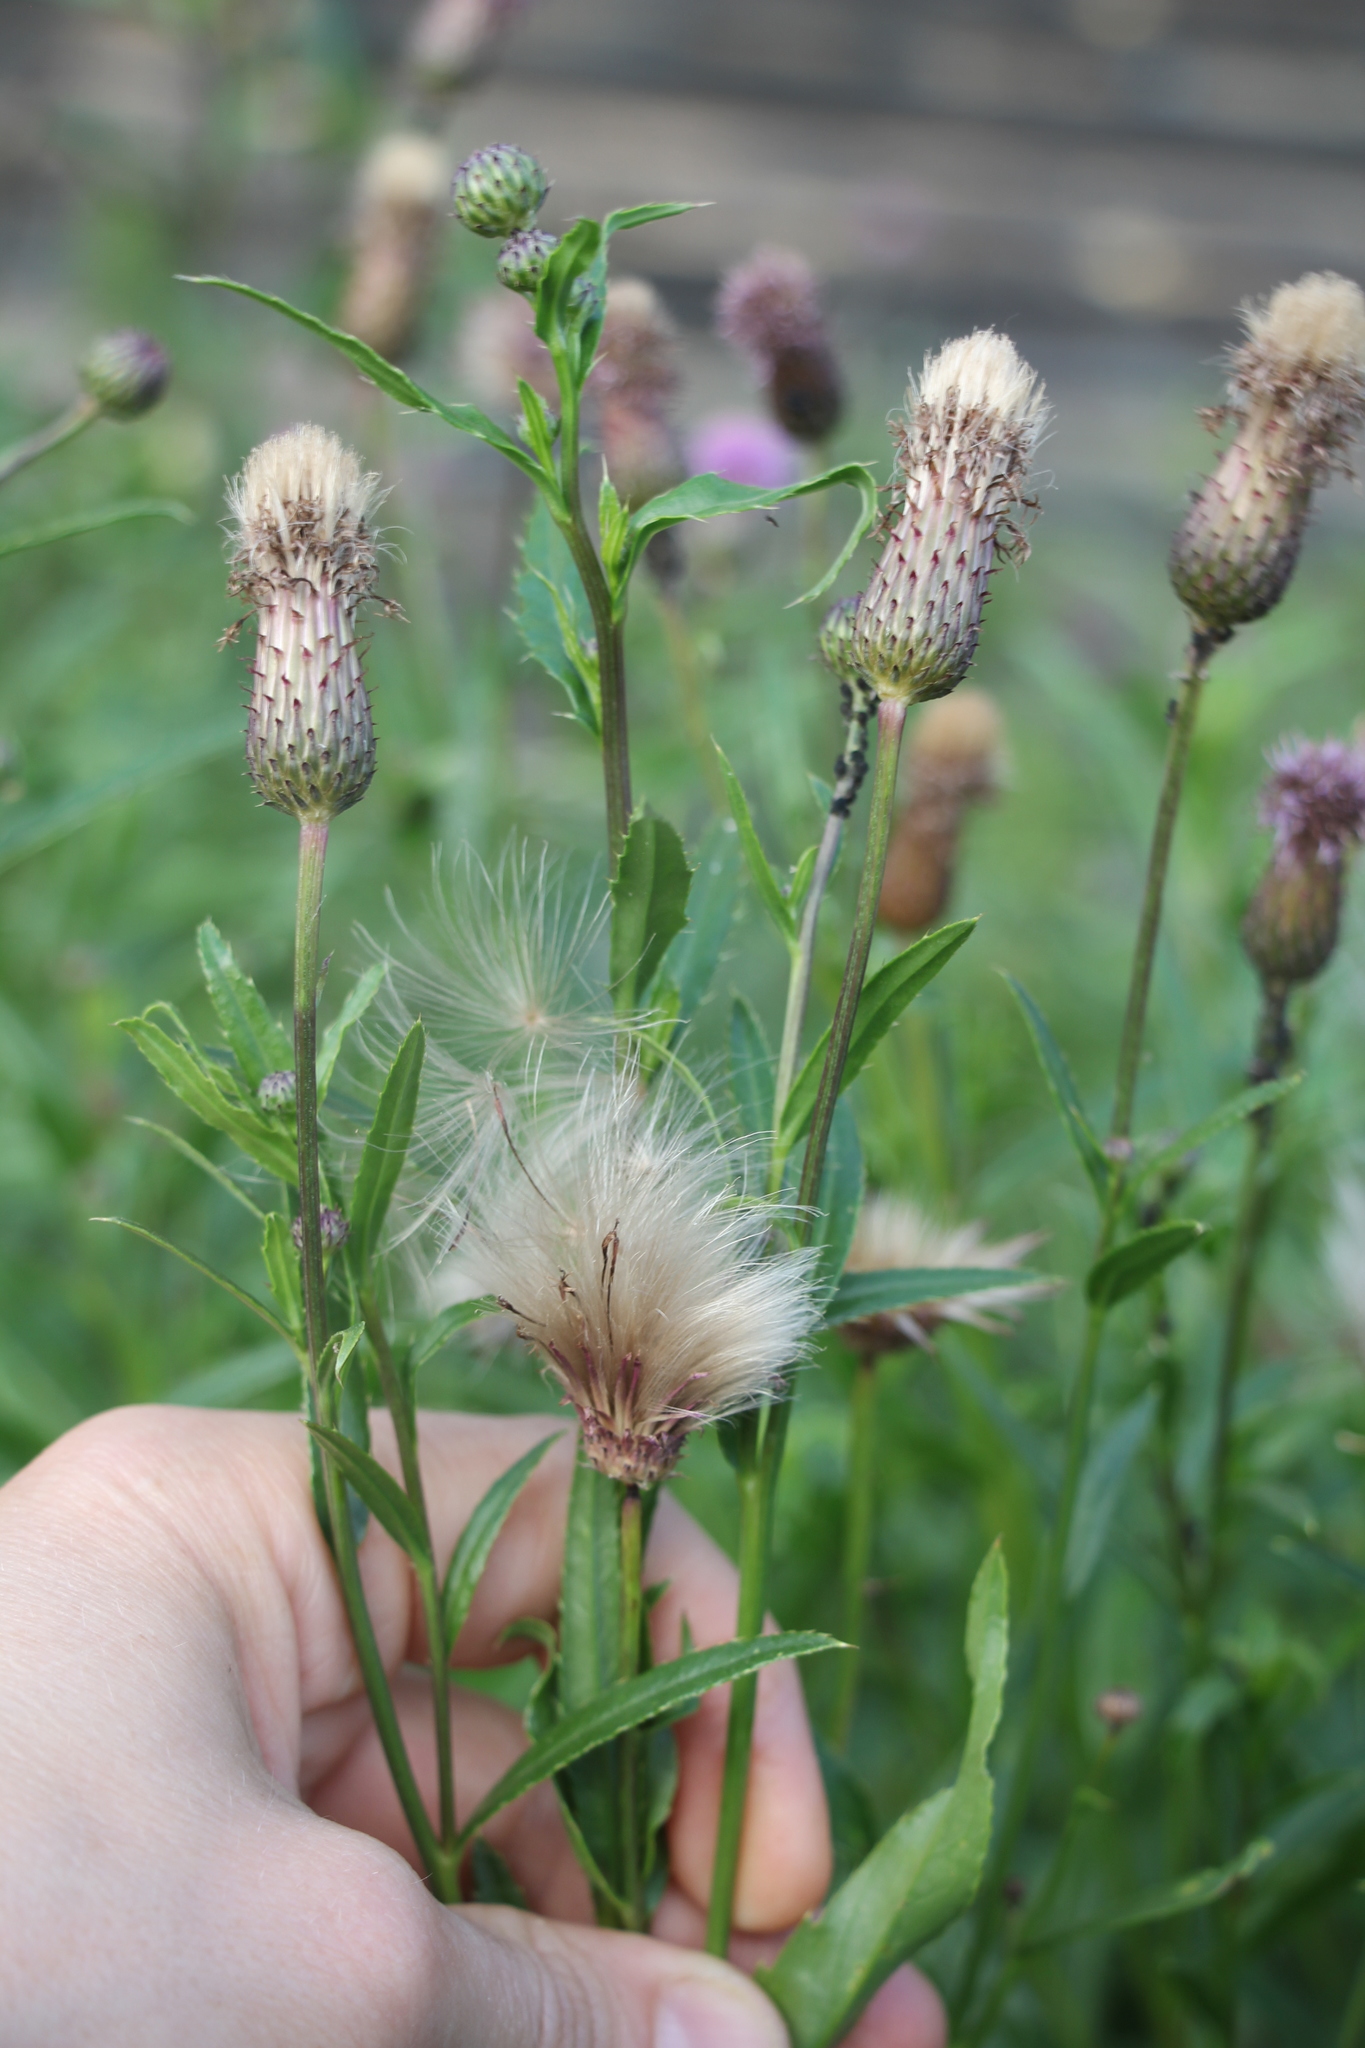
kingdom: Plantae
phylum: Tracheophyta
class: Magnoliopsida
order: Asterales
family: Asteraceae
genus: Cirsium
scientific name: Cirsium arvense
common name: Creeping thistle
